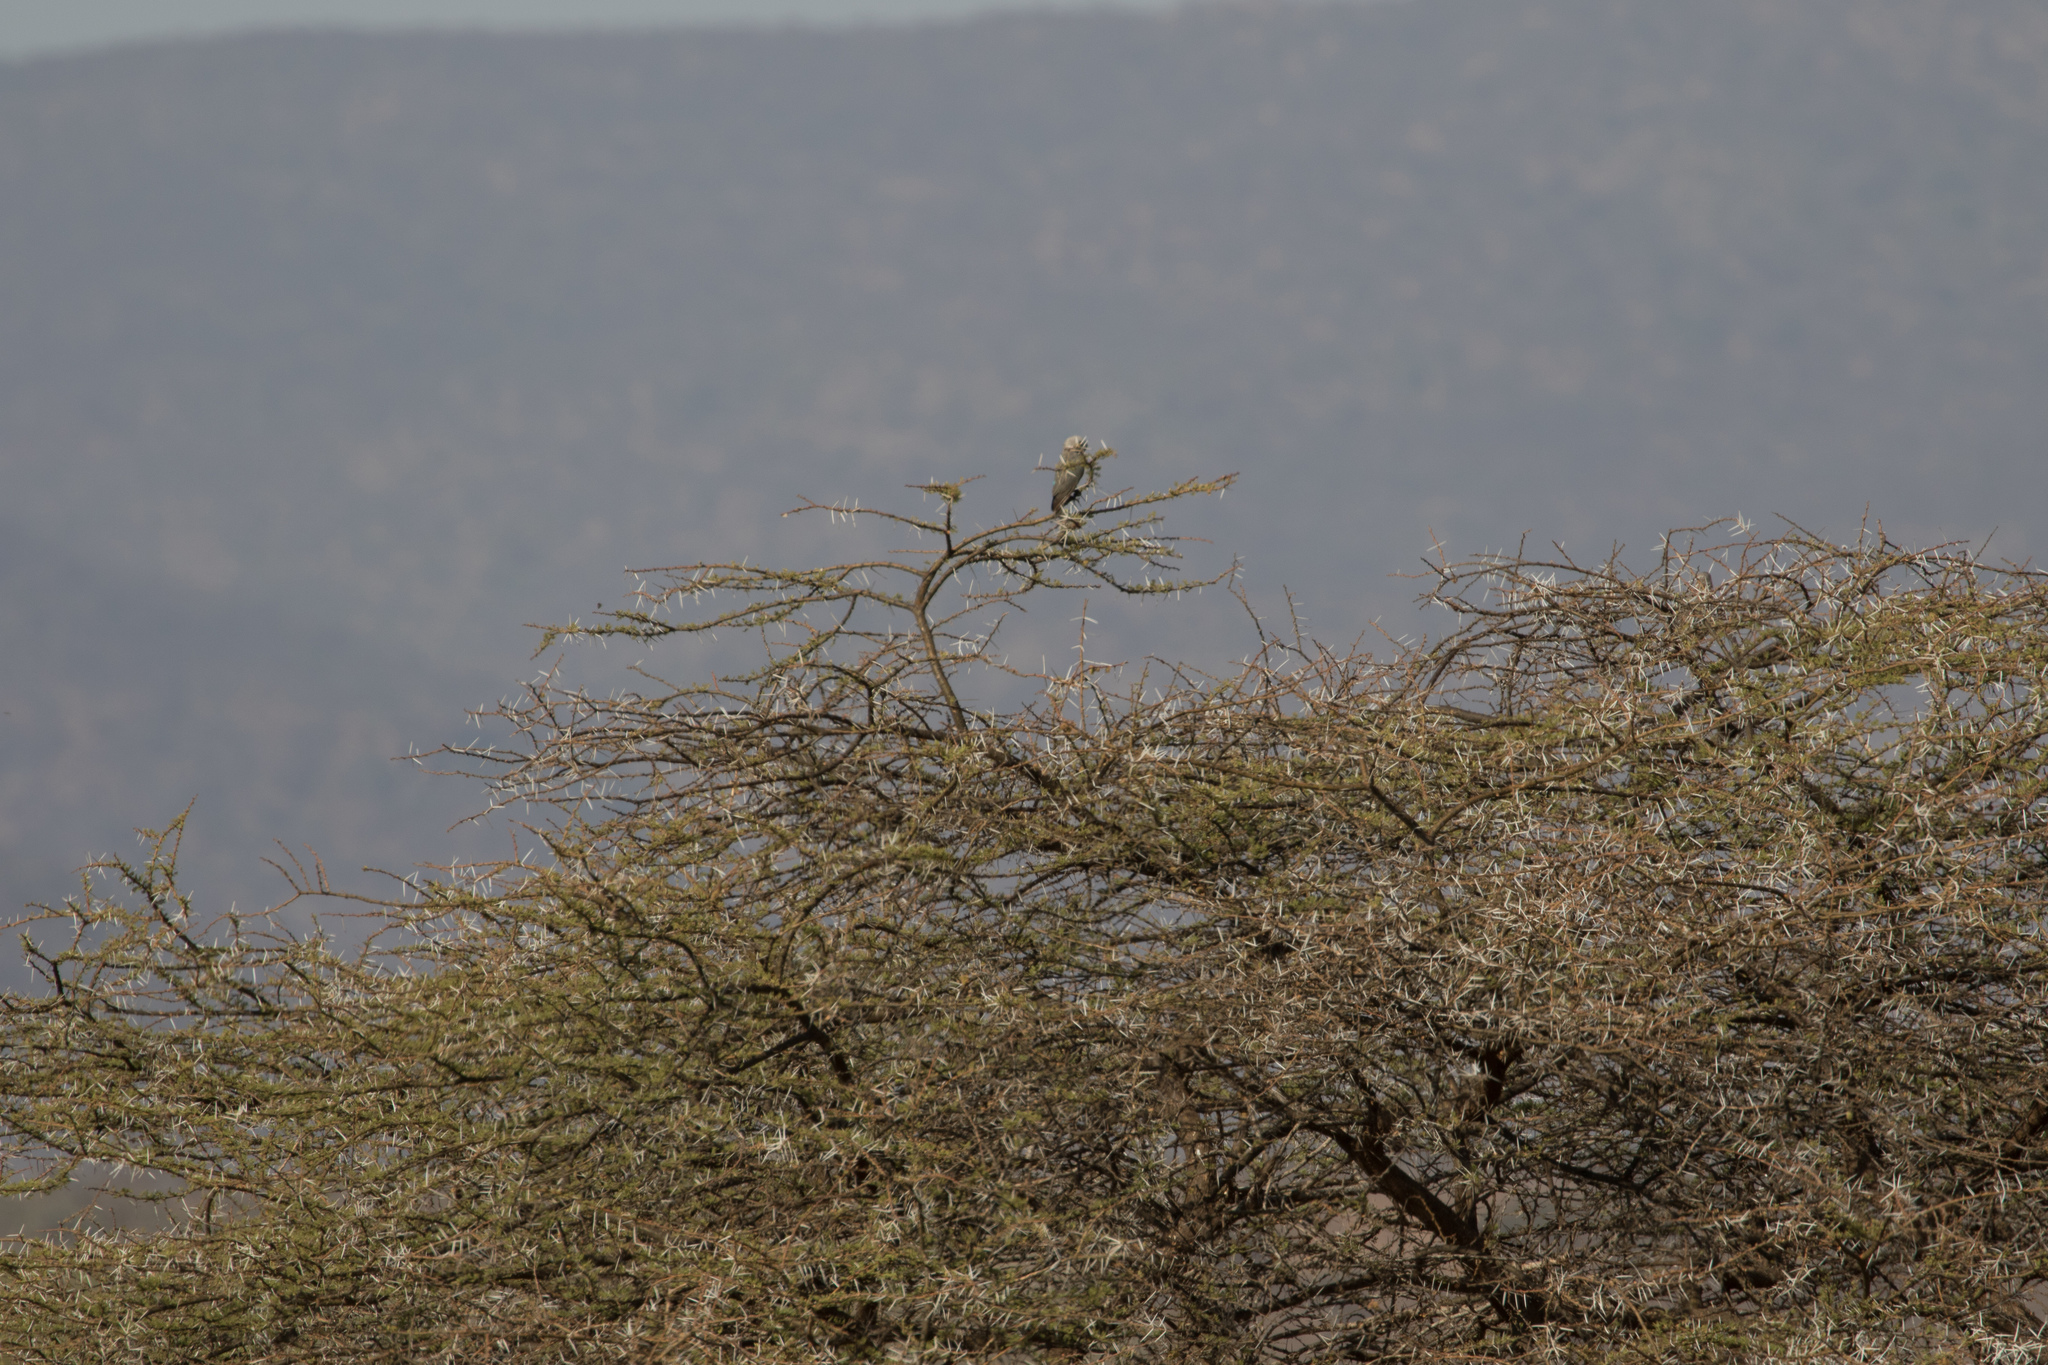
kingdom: Animalia
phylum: Chordata
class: Aves
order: Psittaciformes
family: Psittacidae
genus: Poicephalus
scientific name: Poicephalus rufiventris
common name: Red-bellied parrot
